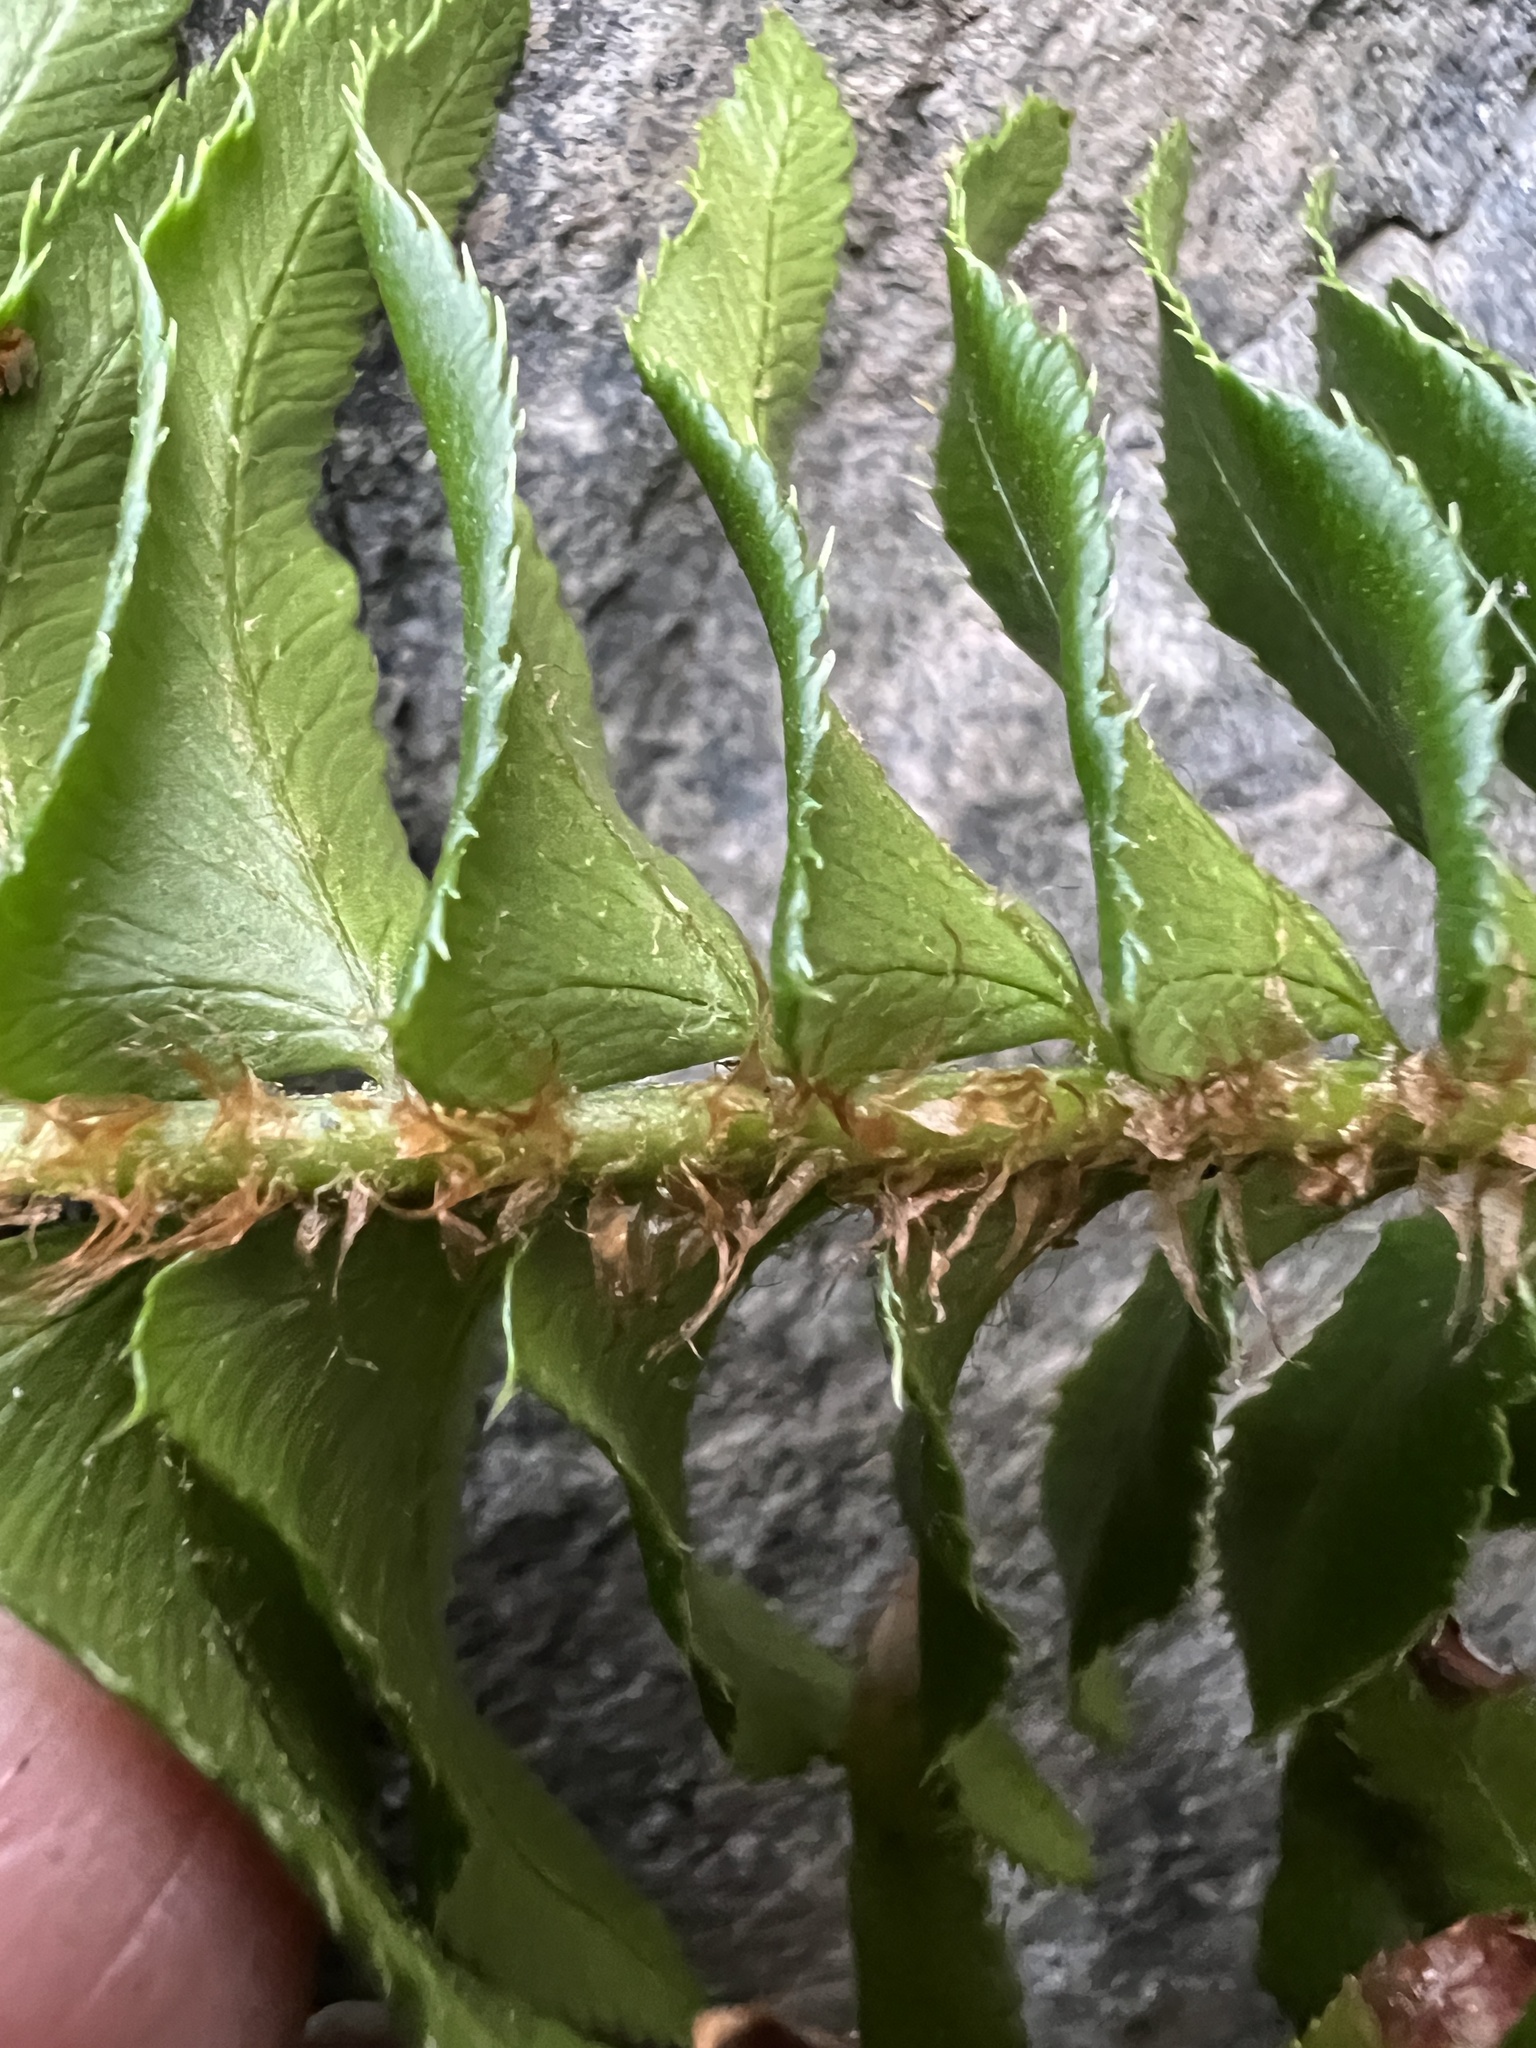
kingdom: Plantae
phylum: Tracheophyta
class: Polypodiopsida
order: Polypodiales
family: Dryopteridaceae
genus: Polystichum
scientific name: Polystichum munitum
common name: Western sword-fern
